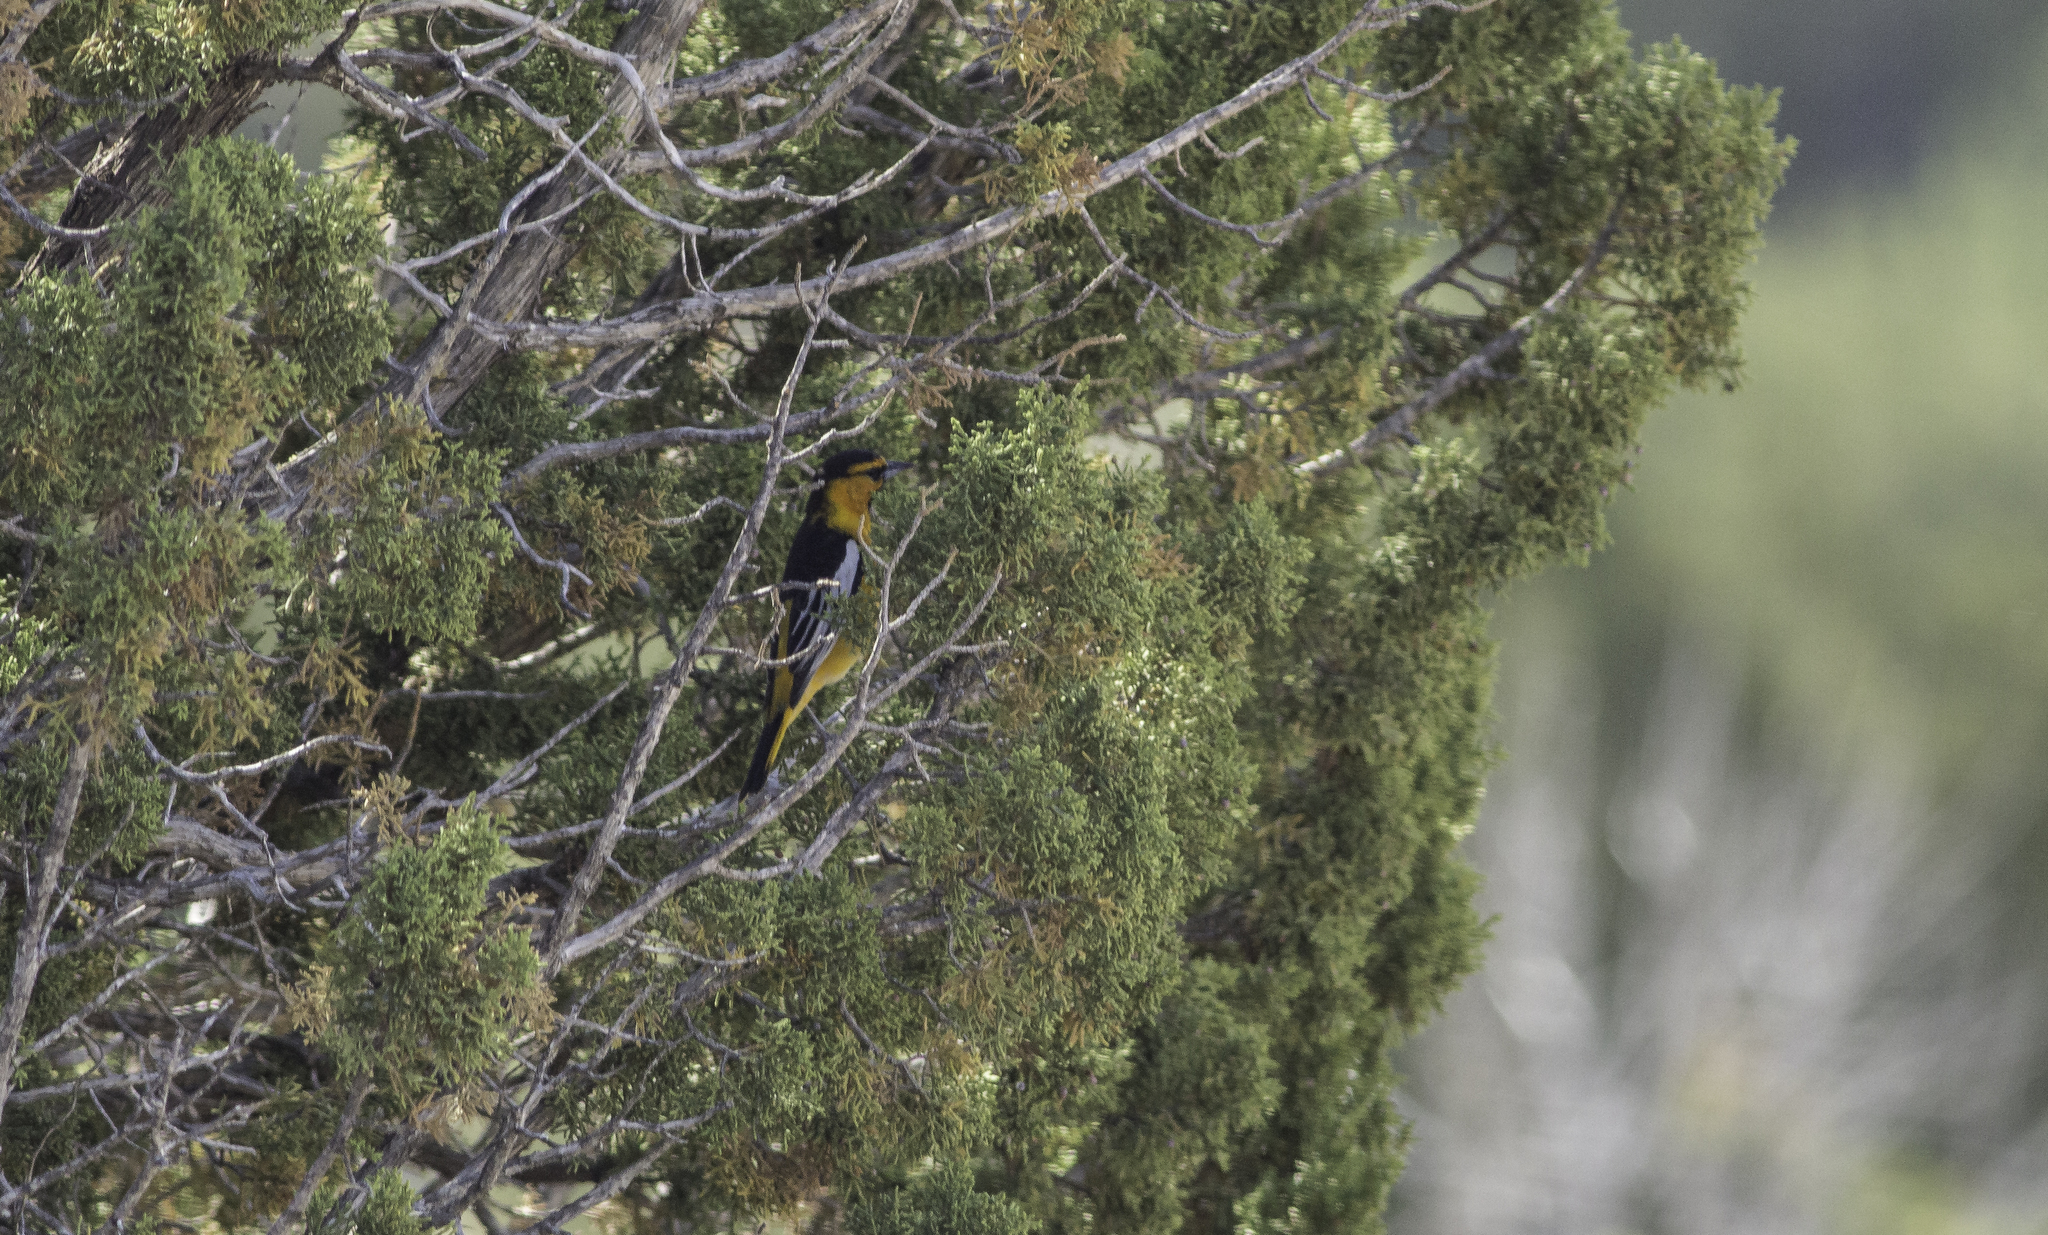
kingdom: Animalia
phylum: Chordata
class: Aves
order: Passeriformes
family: Icteridae
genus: Icterus
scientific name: Icterus bullockii
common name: Bullock's oriole
